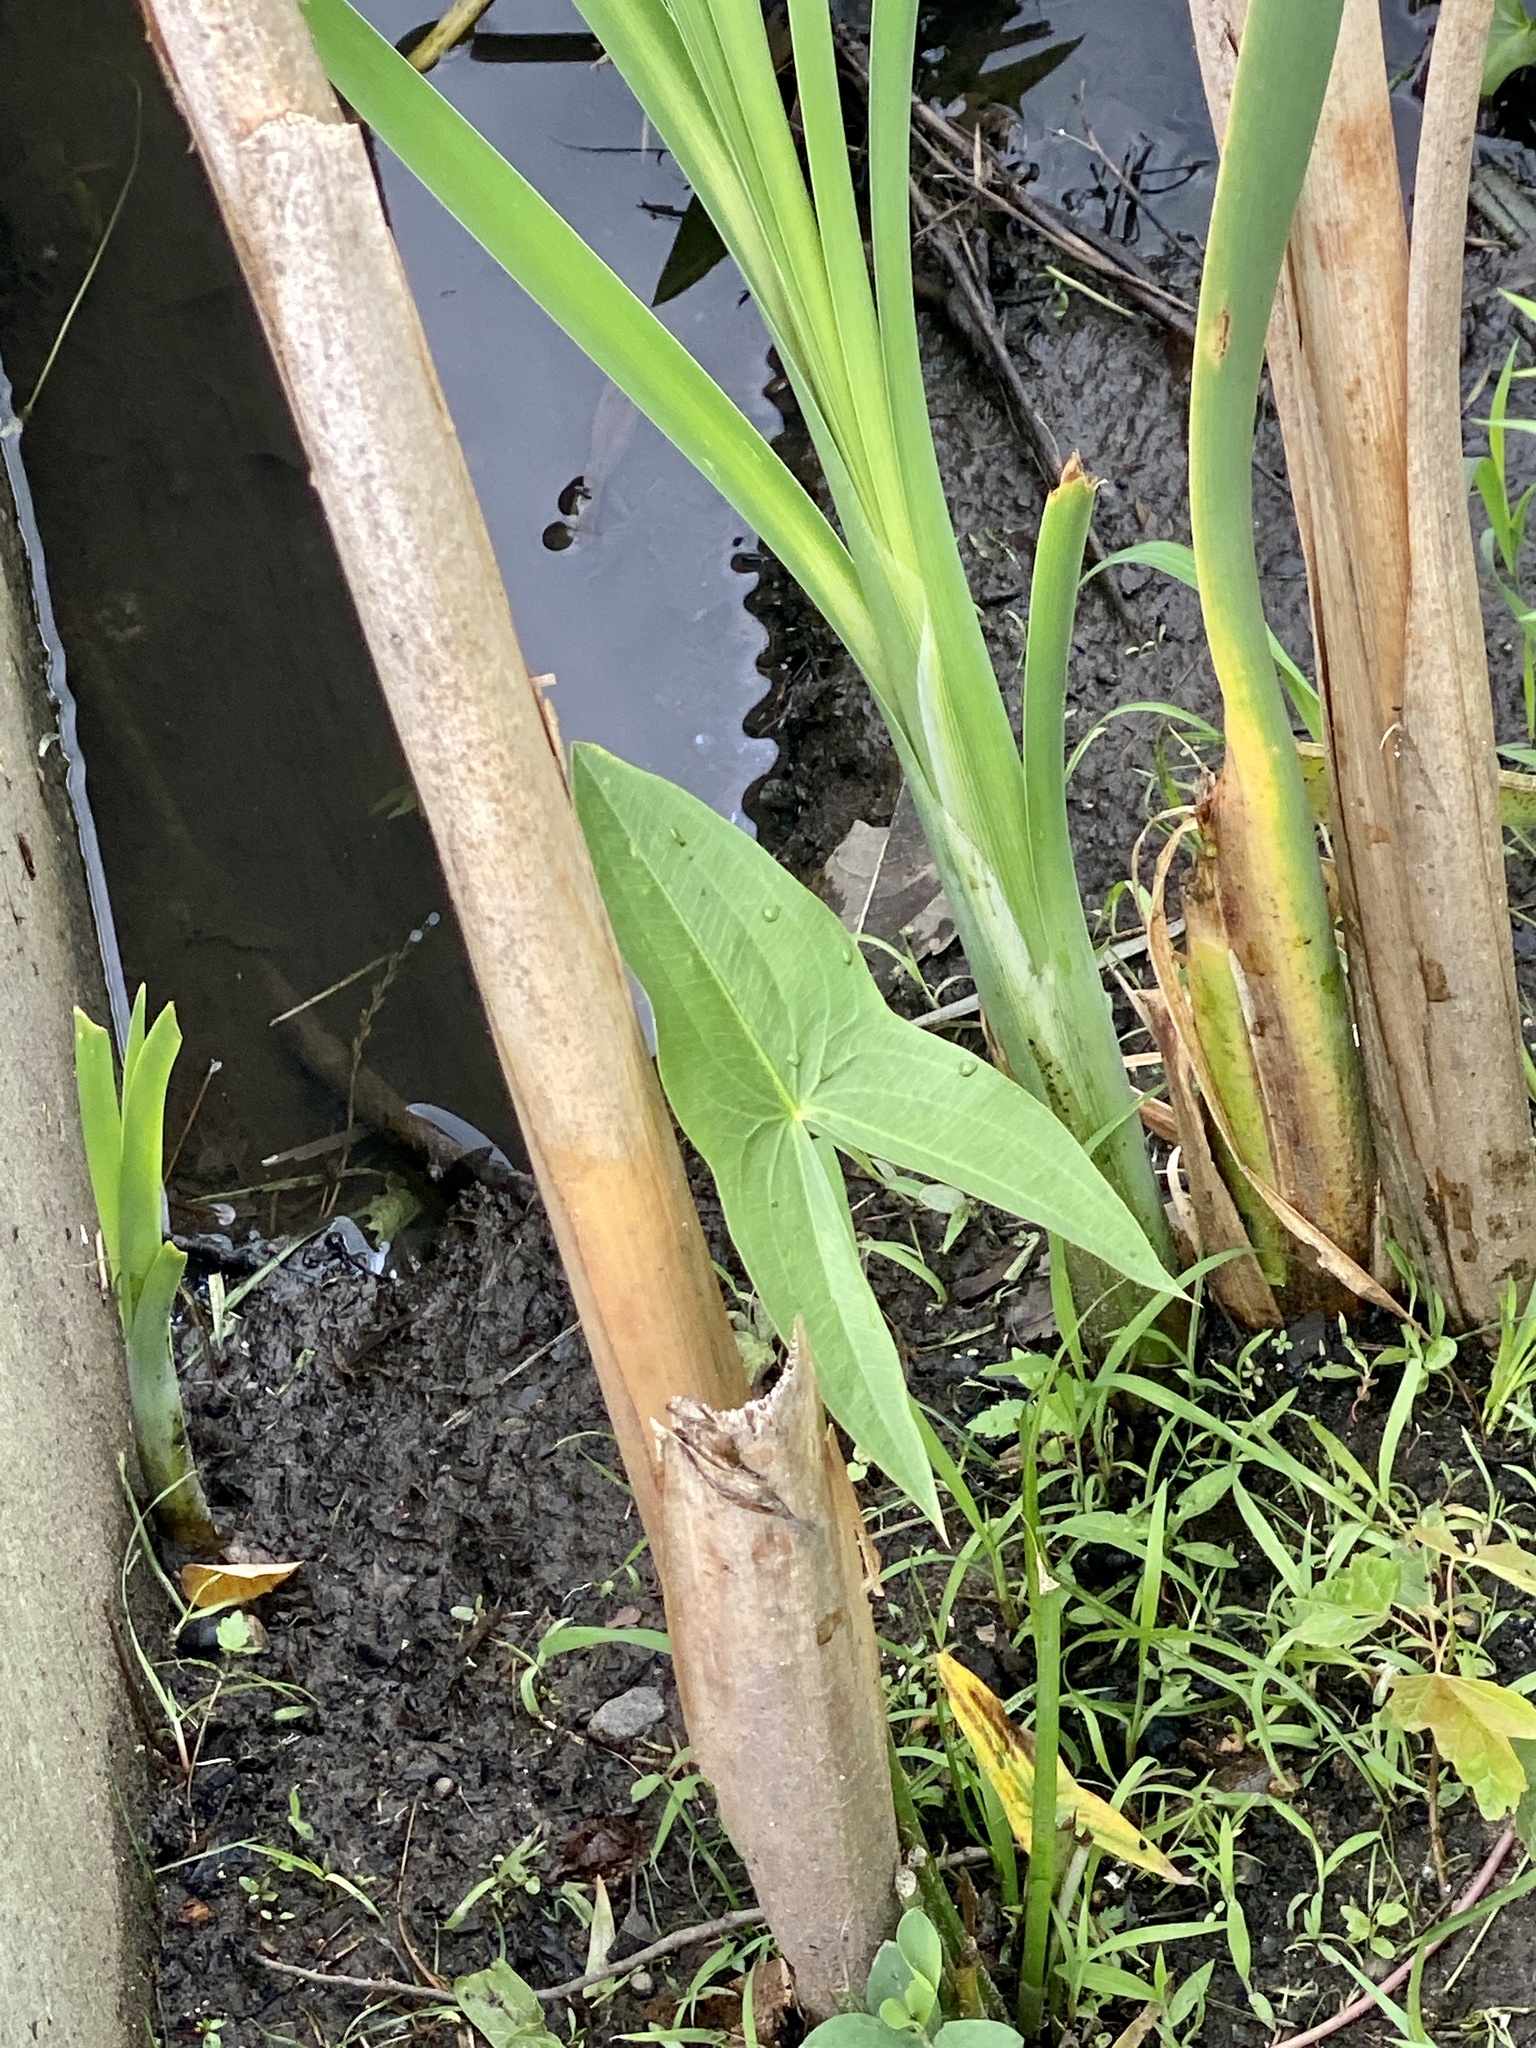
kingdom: Plantae
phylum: Tracheophyta
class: Liliopsida
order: Alismatales
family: Alismataceae
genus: Sagittaria
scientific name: Sagittaria latifolia
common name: Duck-potato
